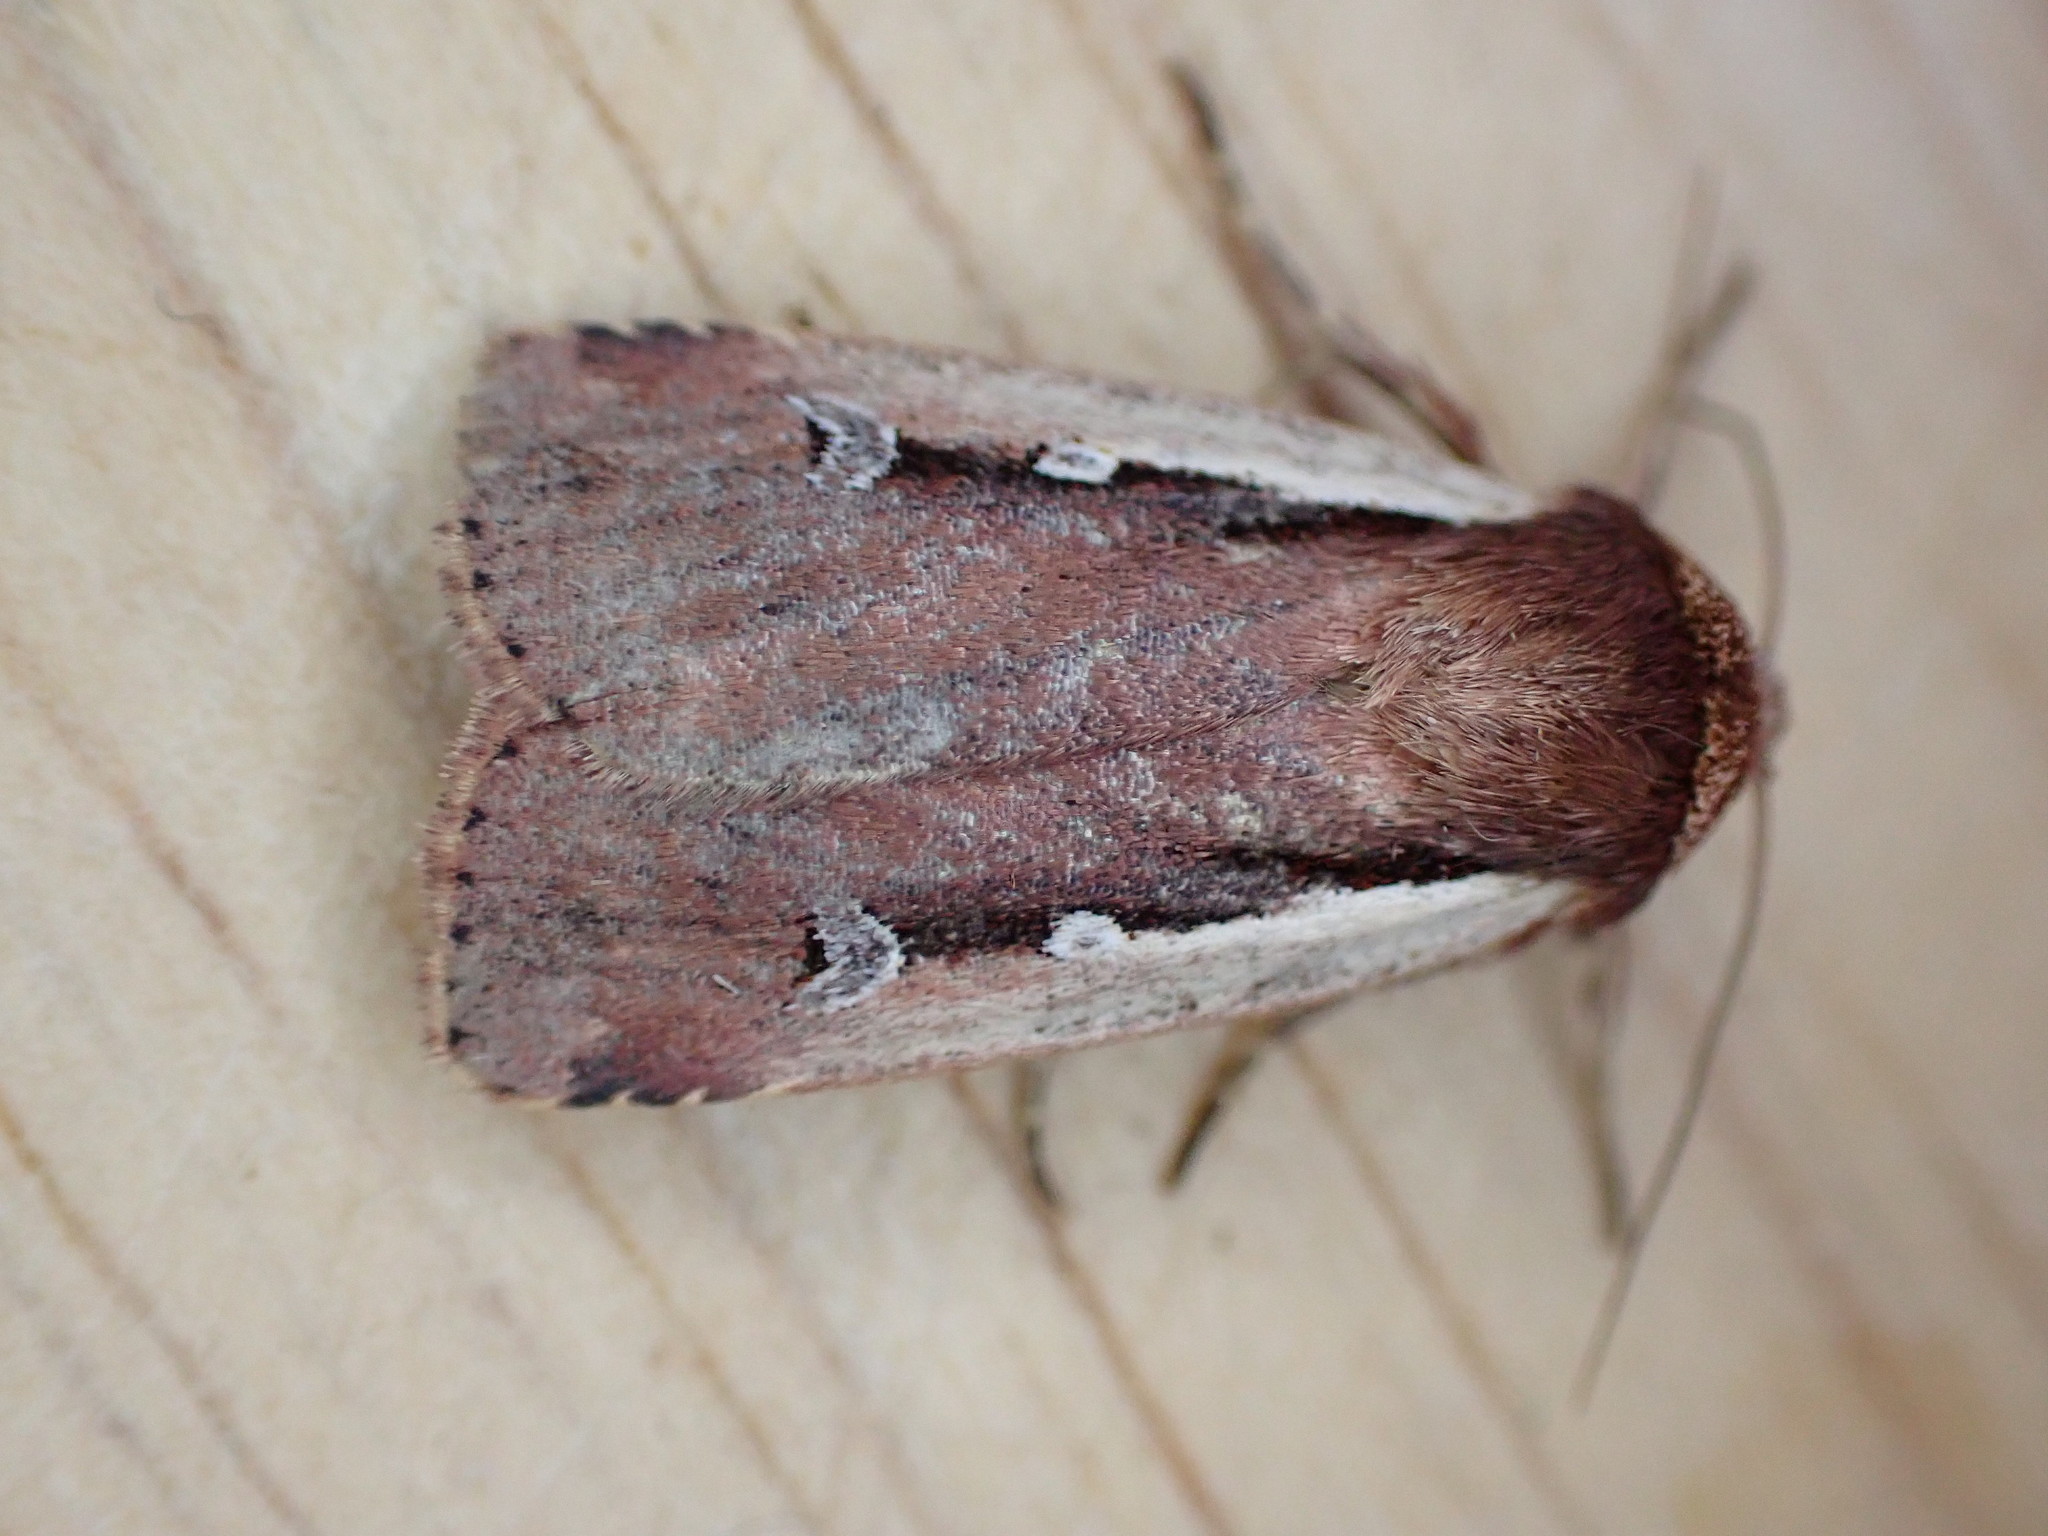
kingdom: Animalia
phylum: Arthropoda
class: Insecta
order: Lepidoptera
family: Noctuidae
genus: Ochropleura
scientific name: Ochropleura plecta
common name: Flame shoulder
